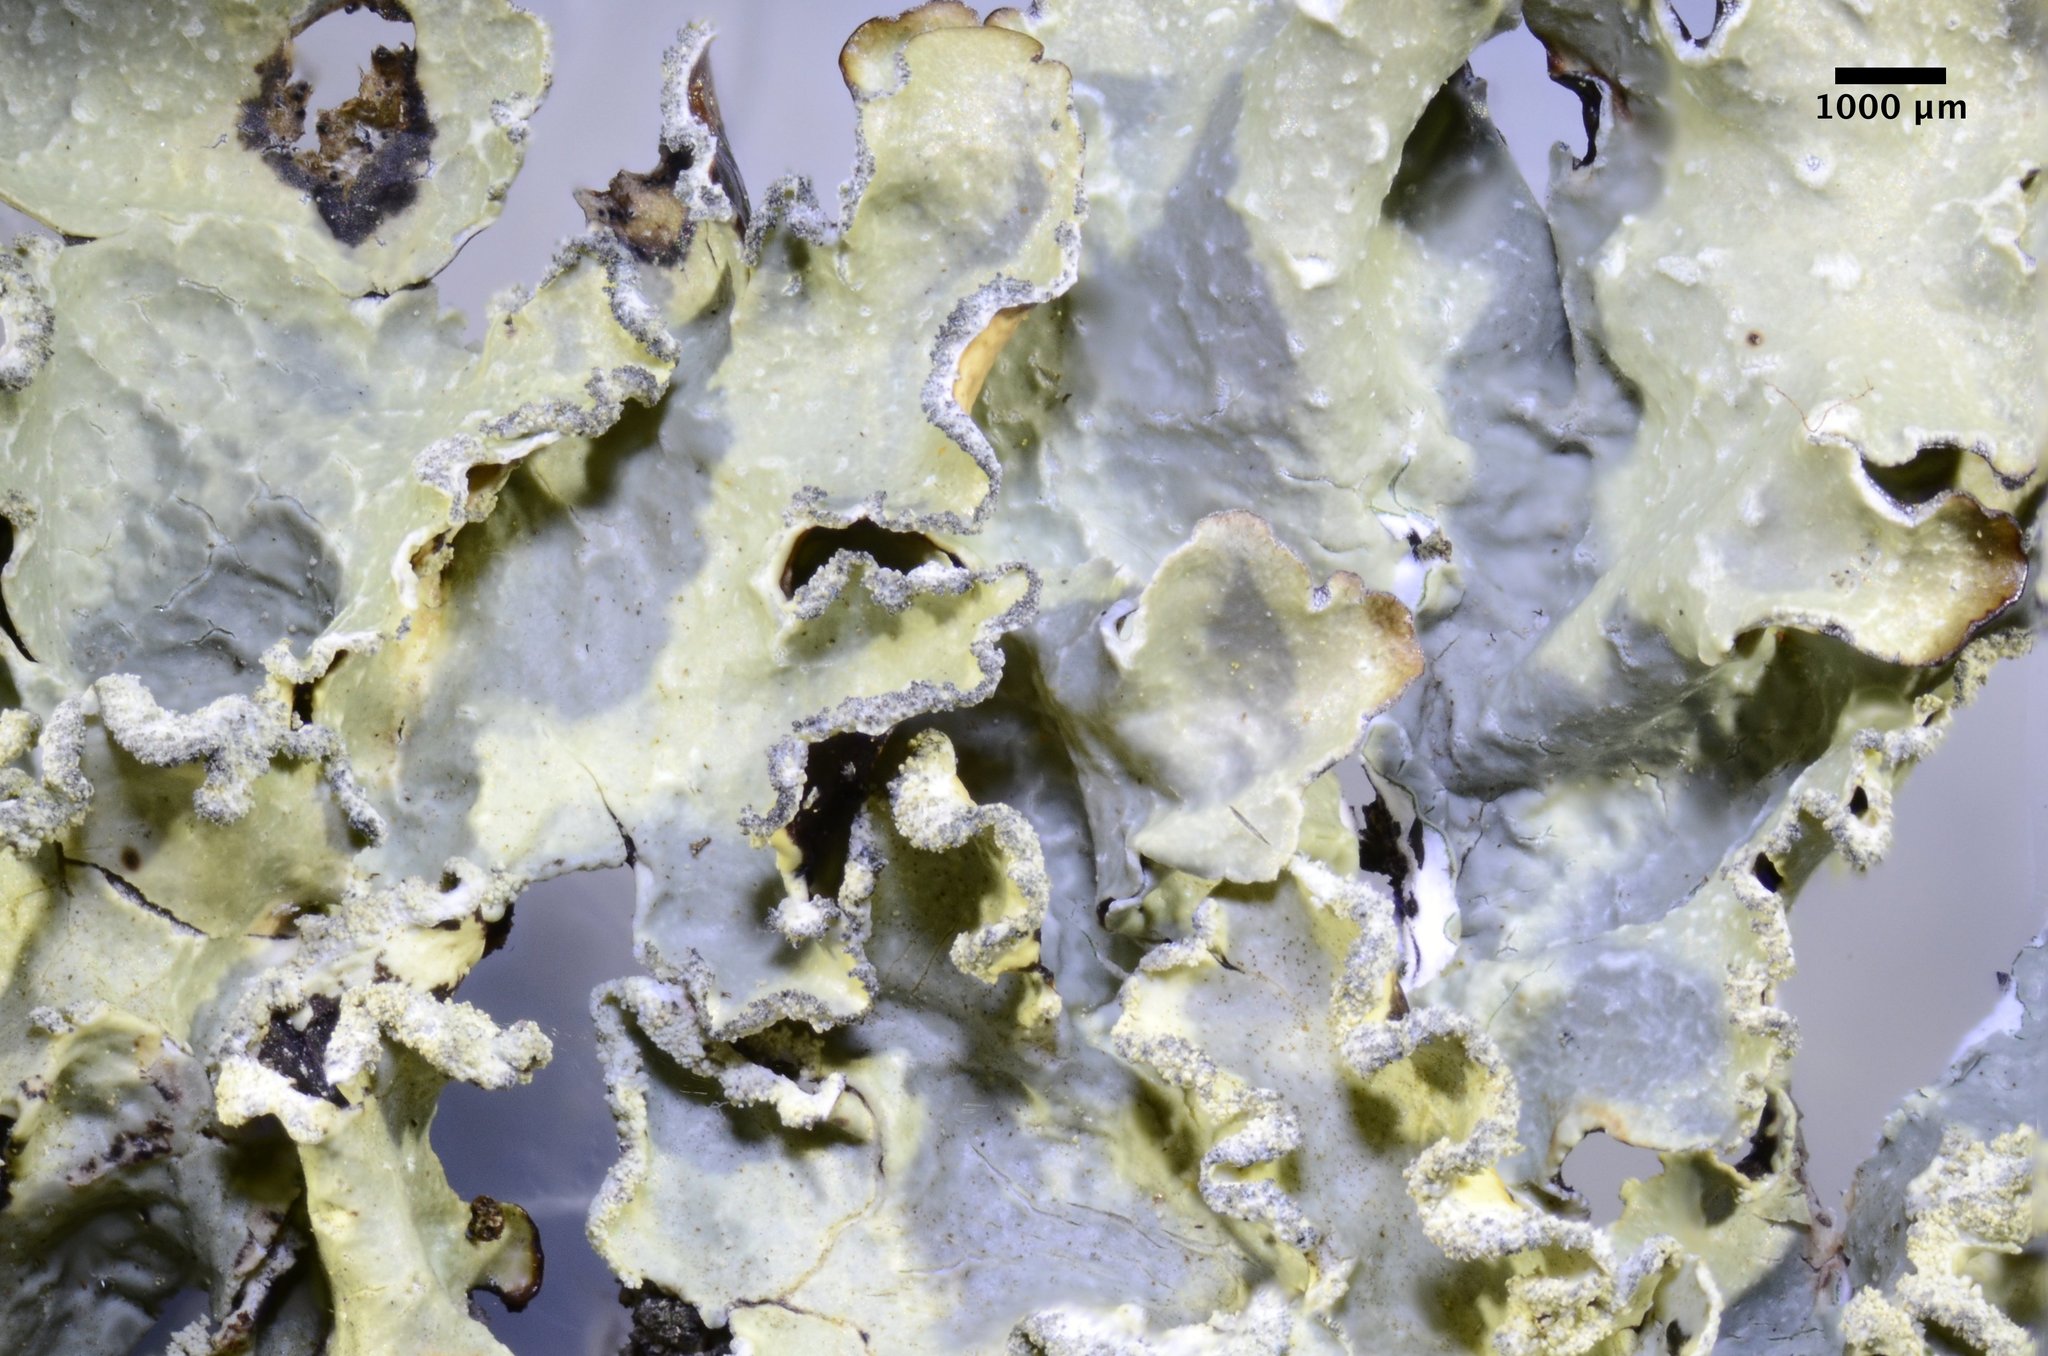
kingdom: Fungi
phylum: Ascomycota
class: Lecanoromycetes
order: Lecanorales
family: Parmeliaceae
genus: Flavopunctelia
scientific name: Flavopunctelia flaventior
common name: Speckled greenshield
